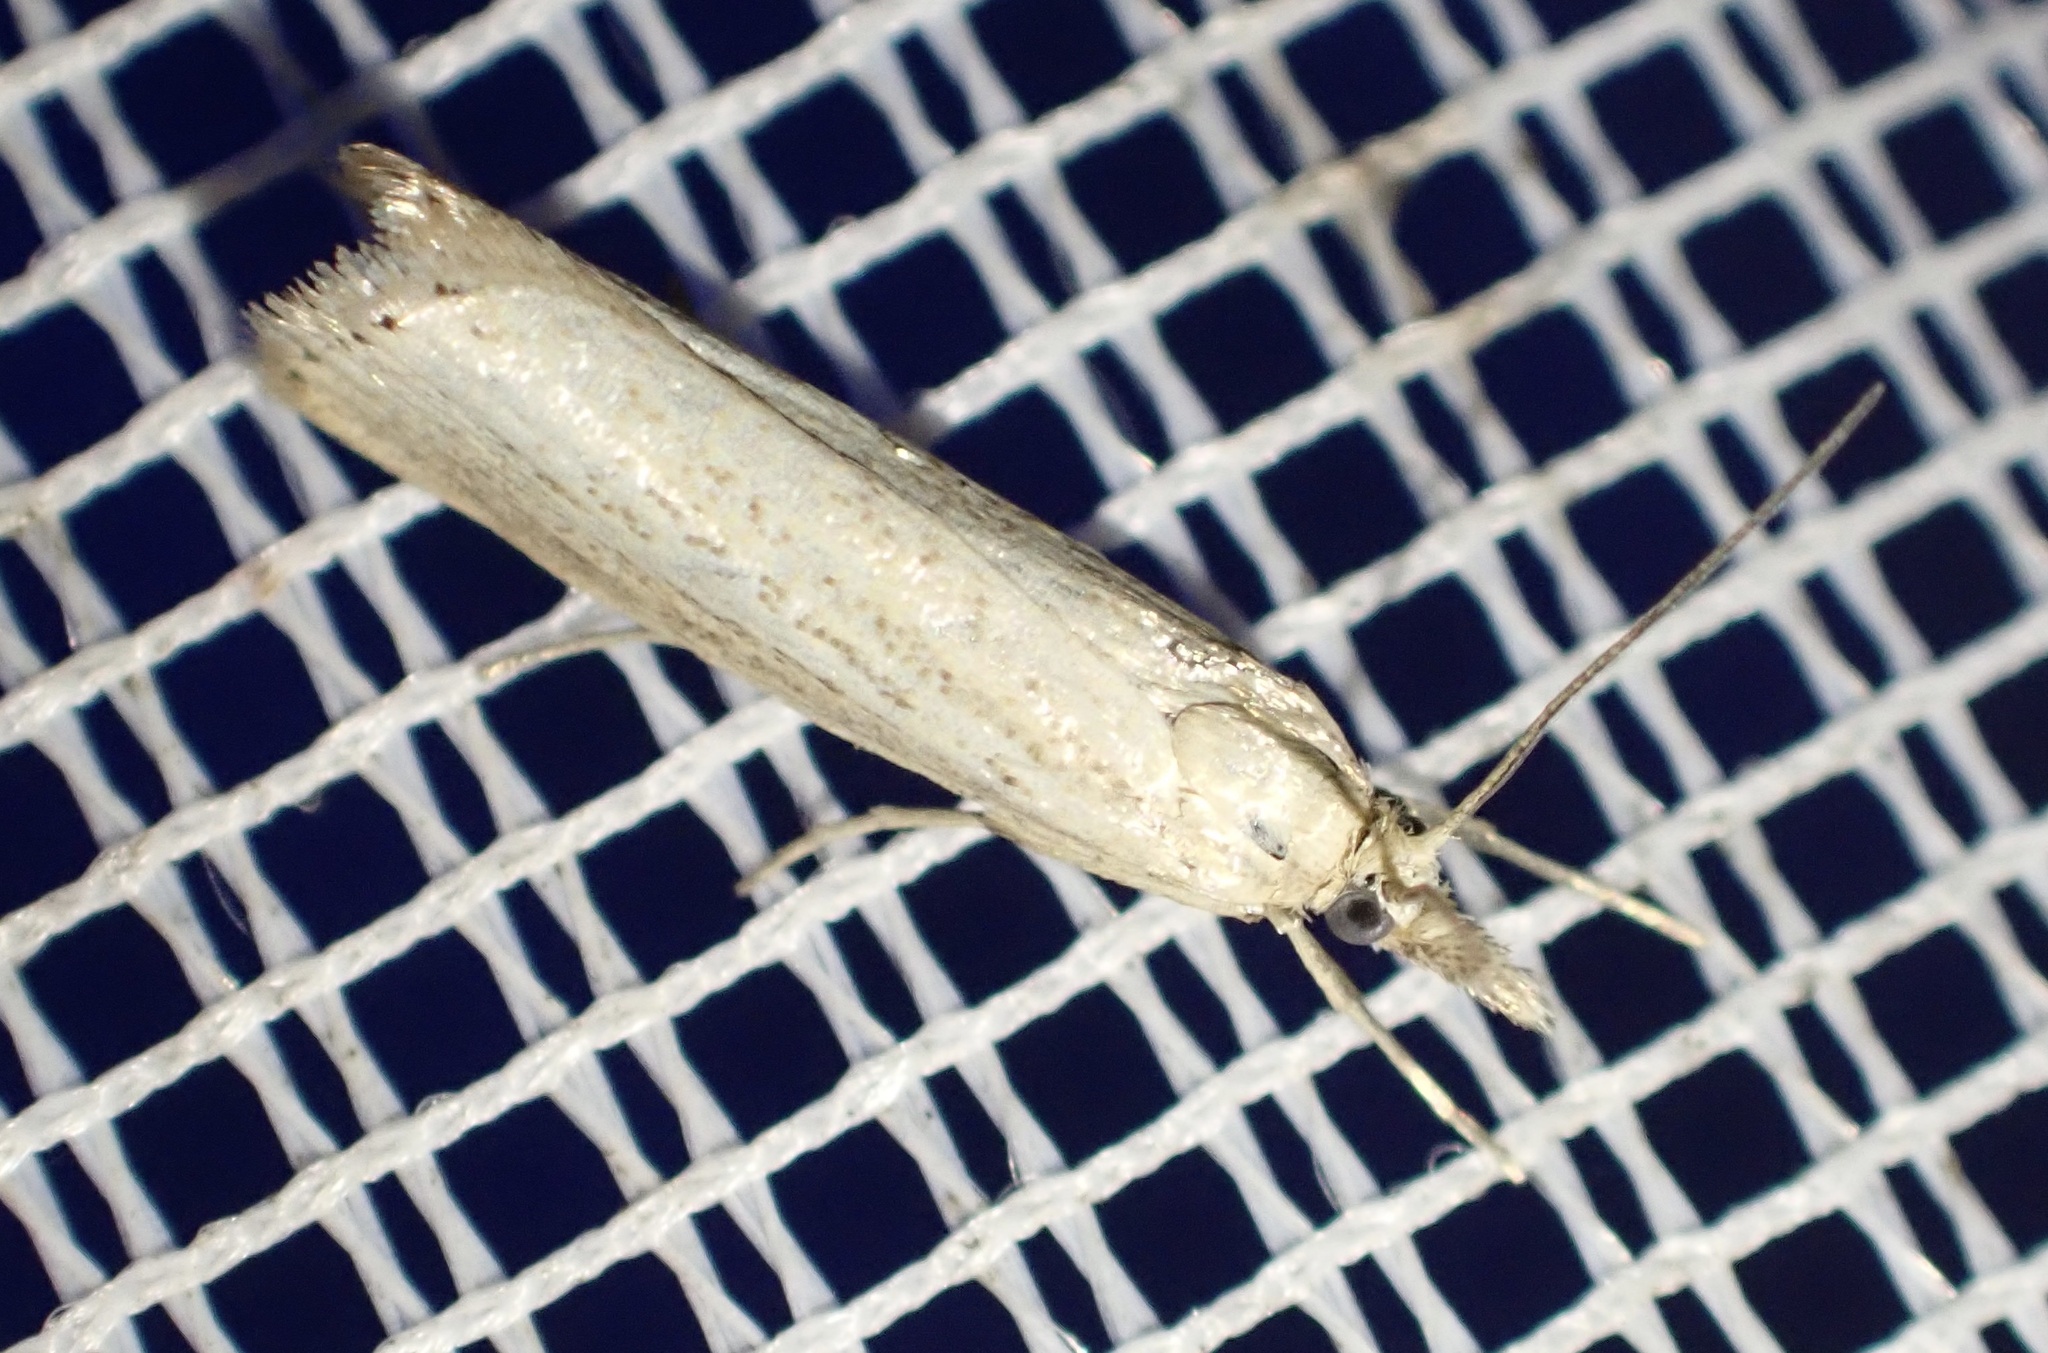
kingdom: Animalia
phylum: Arthropoda
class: Insecta
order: Lepidoptera
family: Crambidae
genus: Agriphila
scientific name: Agriphila straminella
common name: Straw grass-veneer
